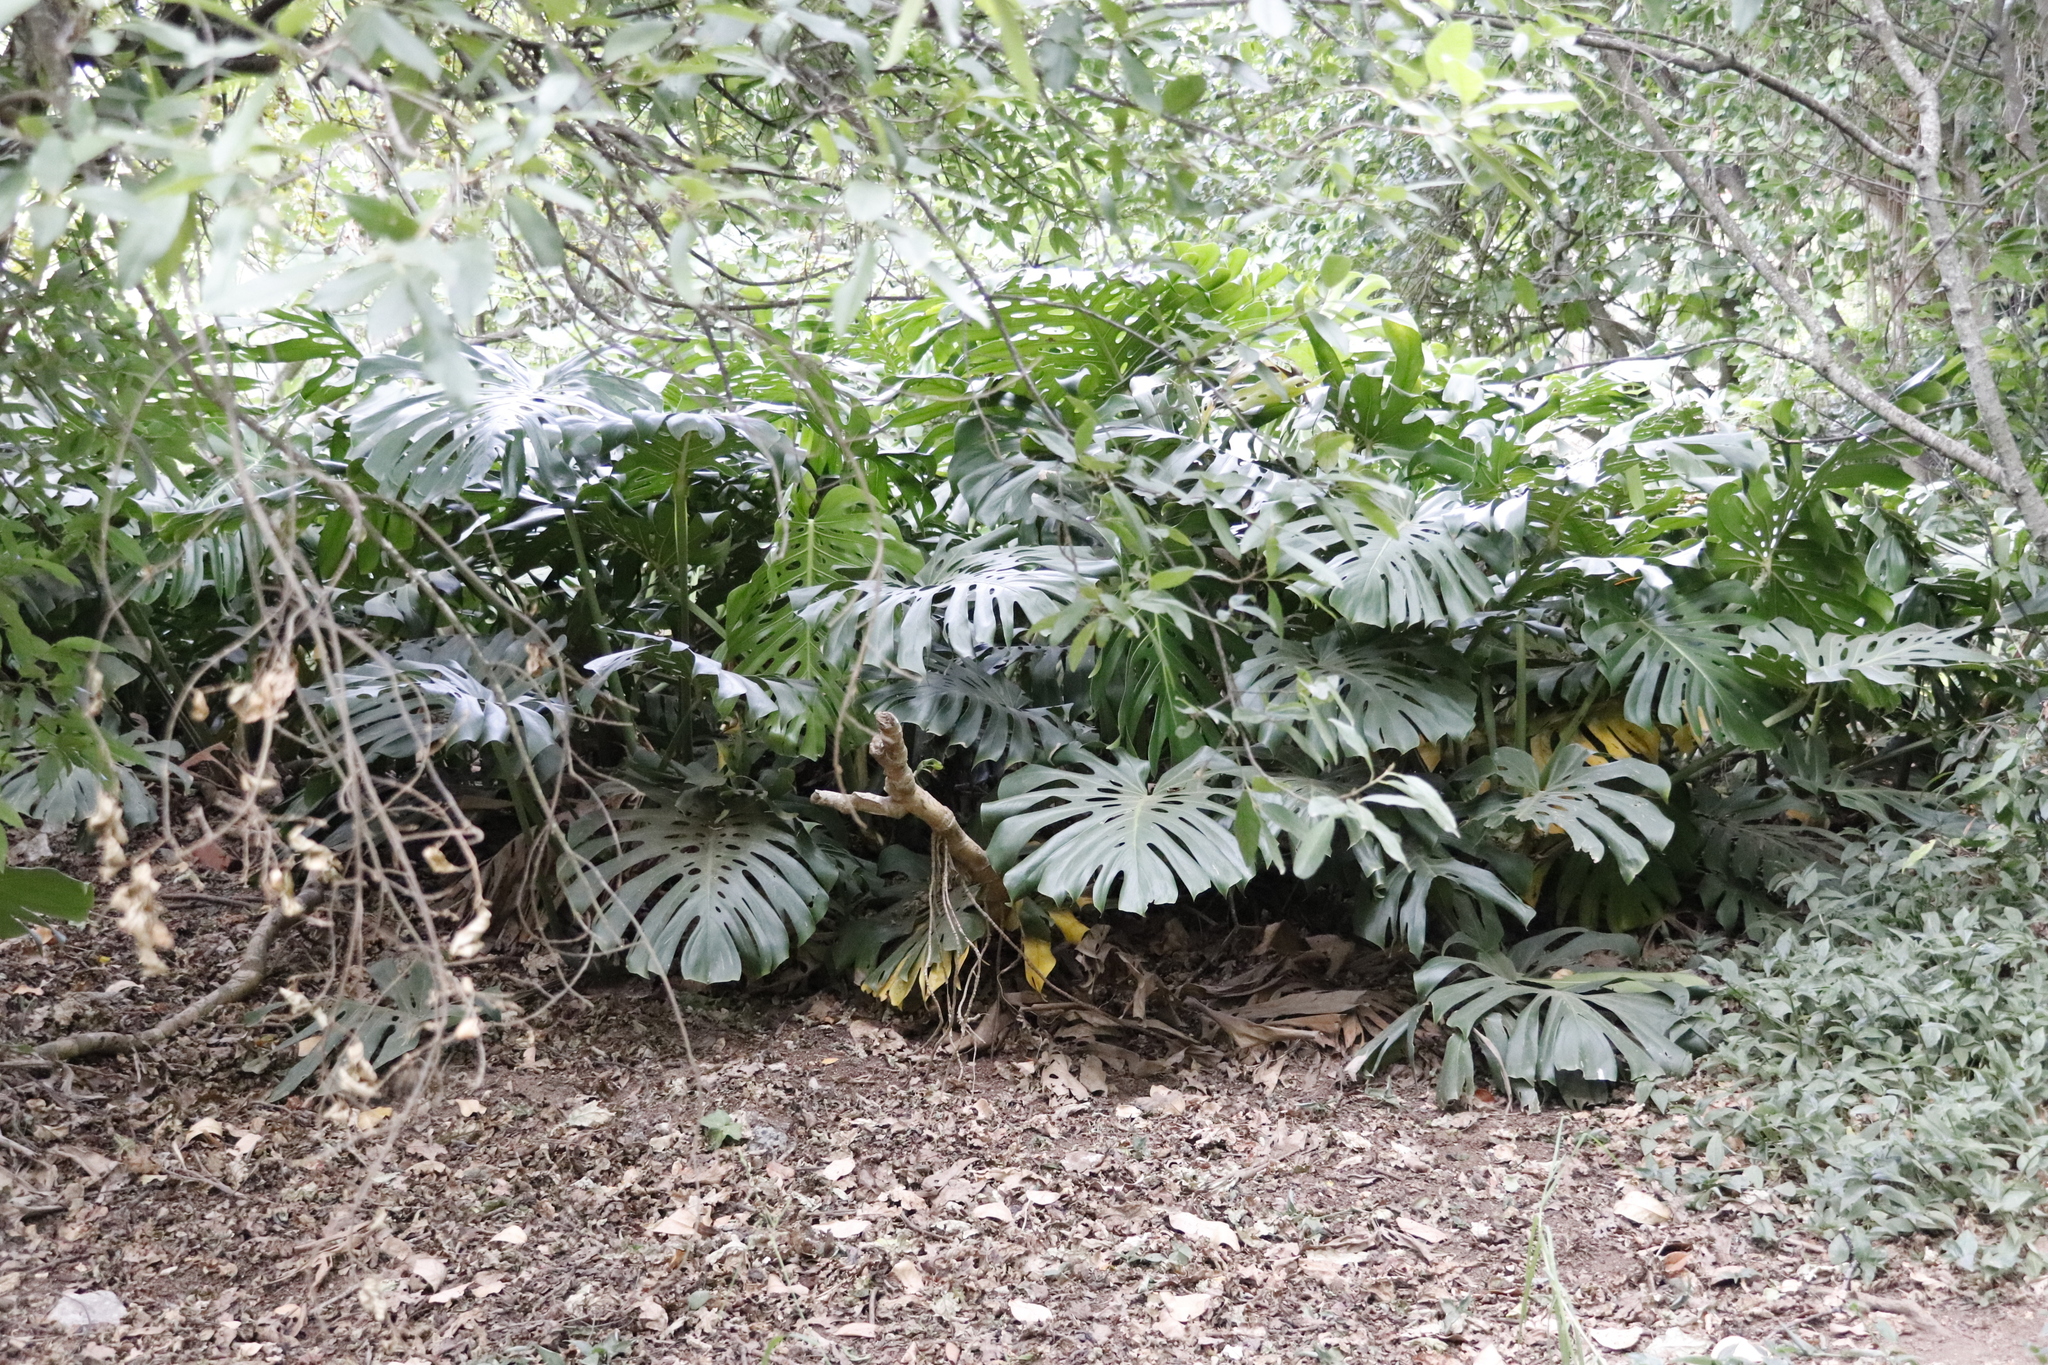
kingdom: Plantae
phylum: Tracheophyta
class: Liliopsida
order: Alismatales
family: Araceae
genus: Monstera
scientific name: Monstera deliciosa
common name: Cut-leaf-philodendron
